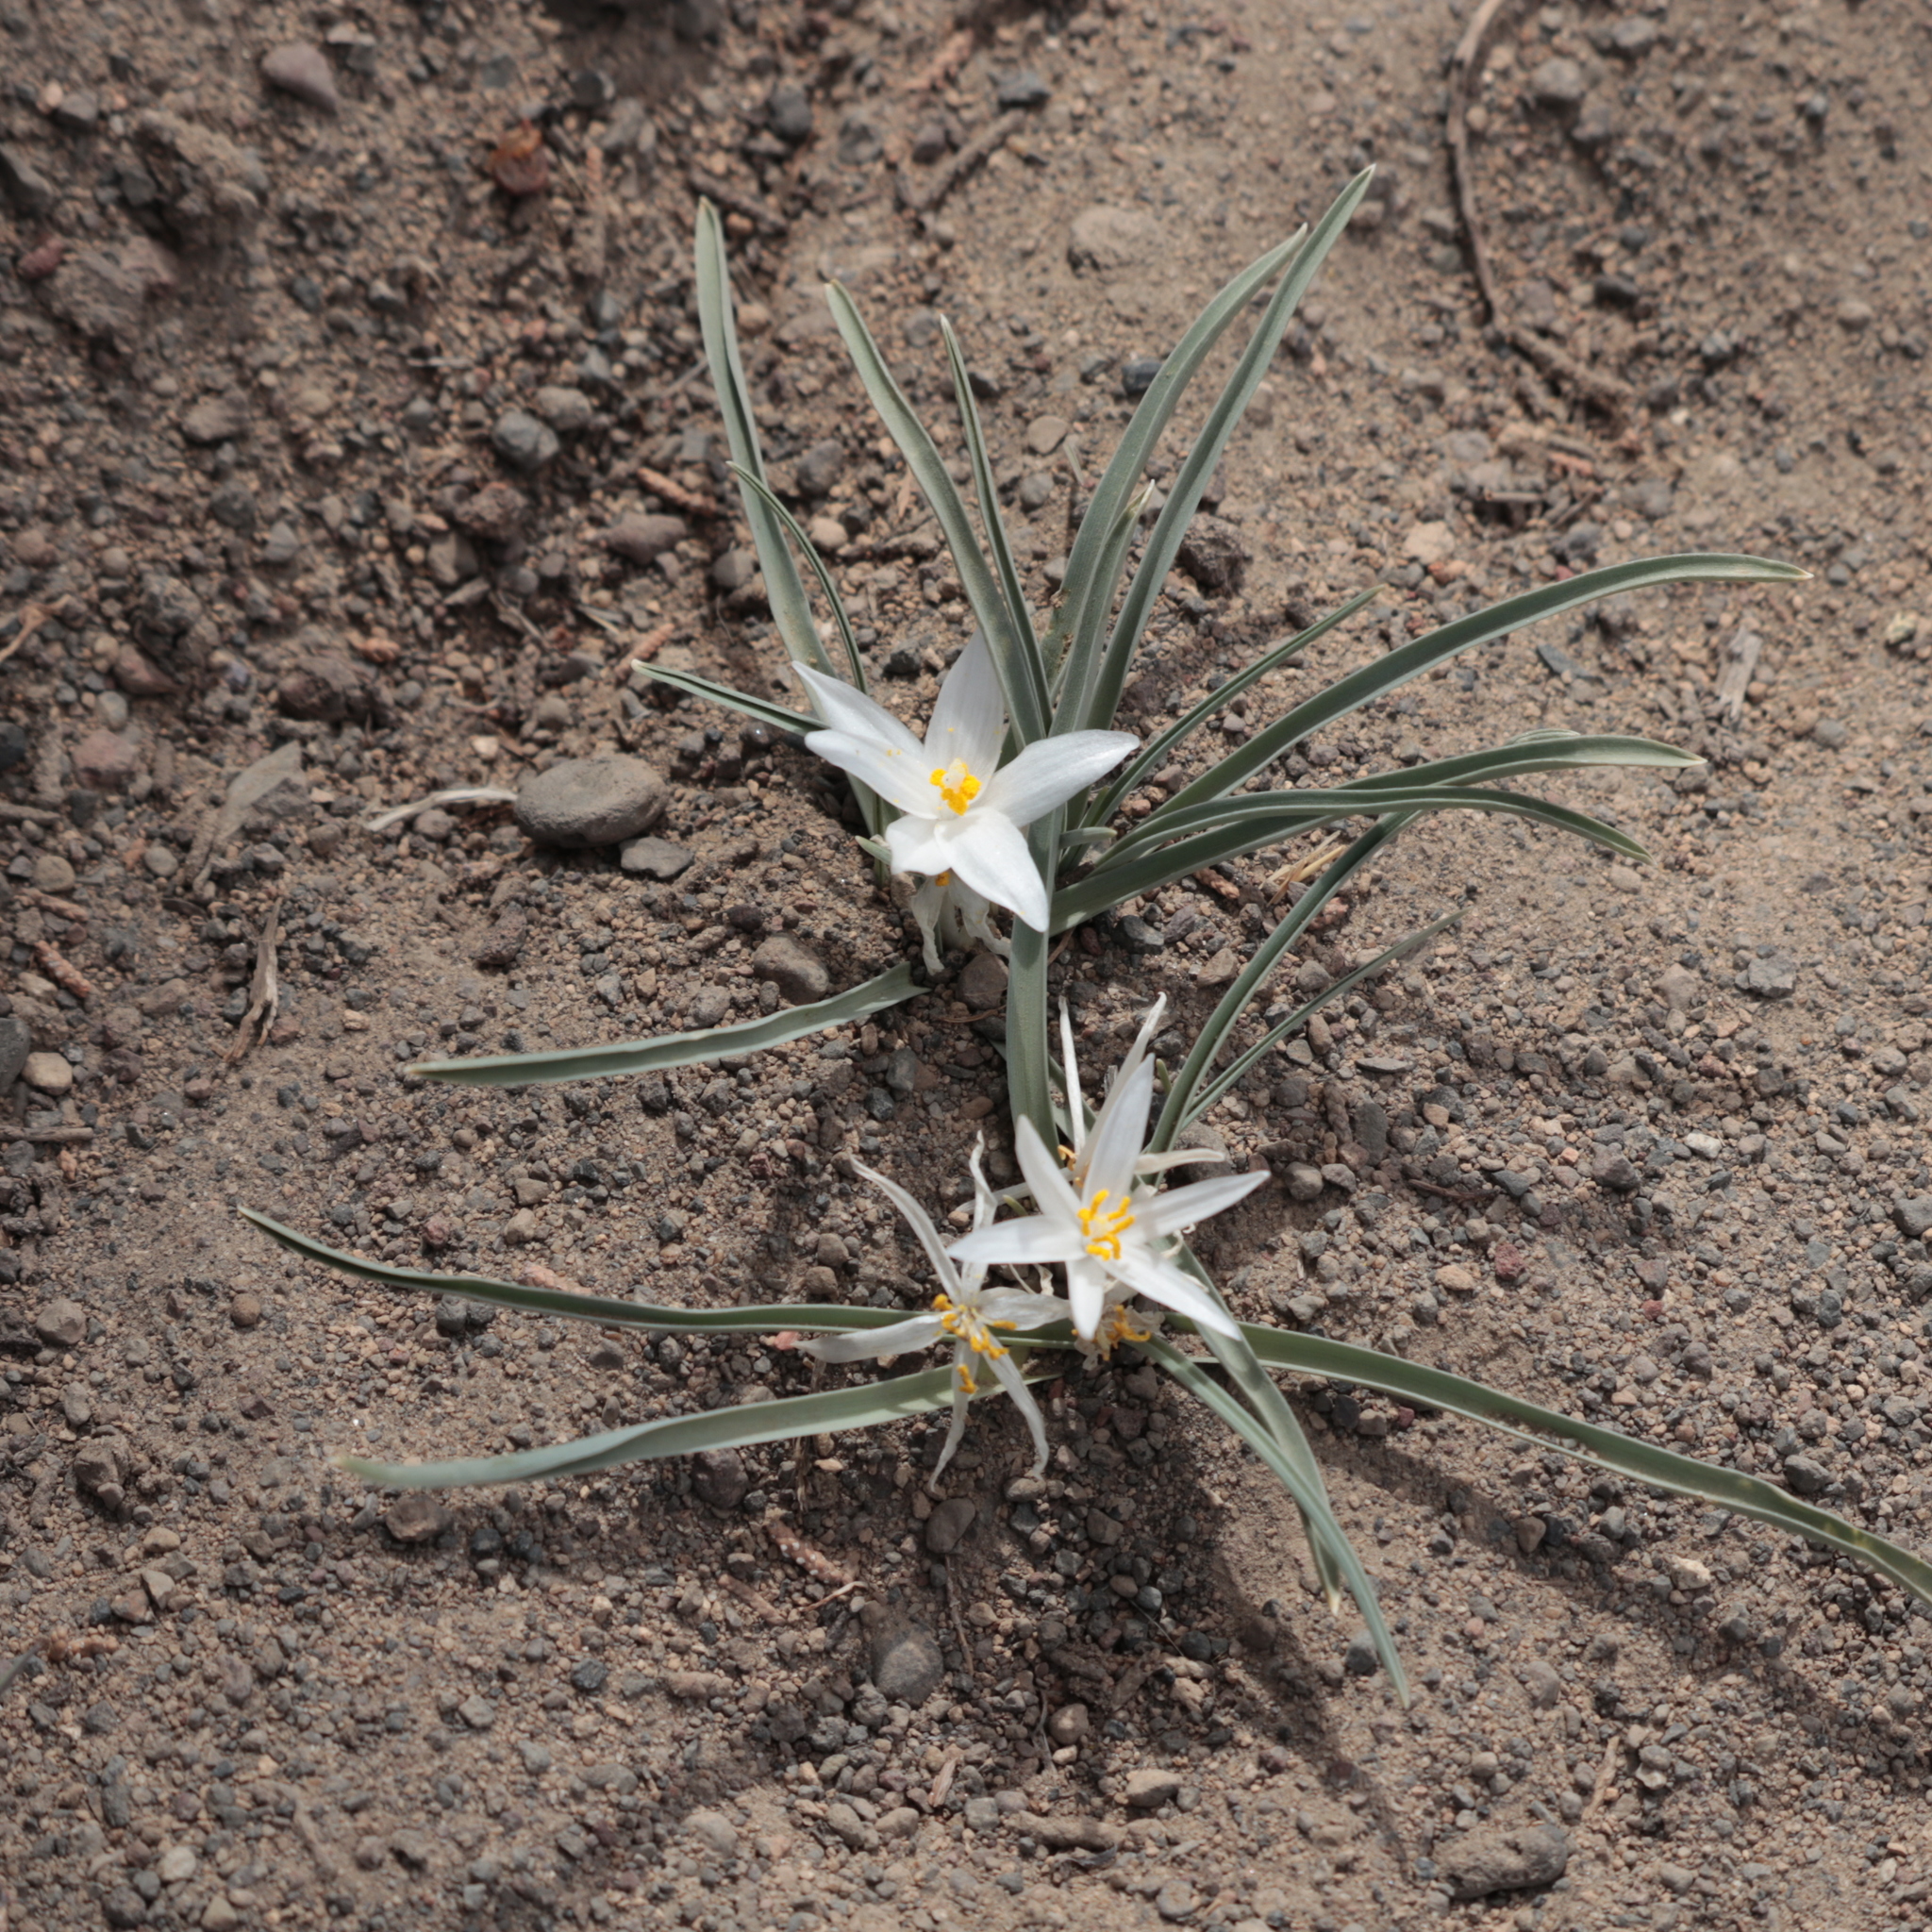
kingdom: Plantae
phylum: Tracheophyta
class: Liliopsida
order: Asparagales
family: Asparagaceae
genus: Leucocrinum
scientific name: Leucocrinum montanum
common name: Mountain-lily
